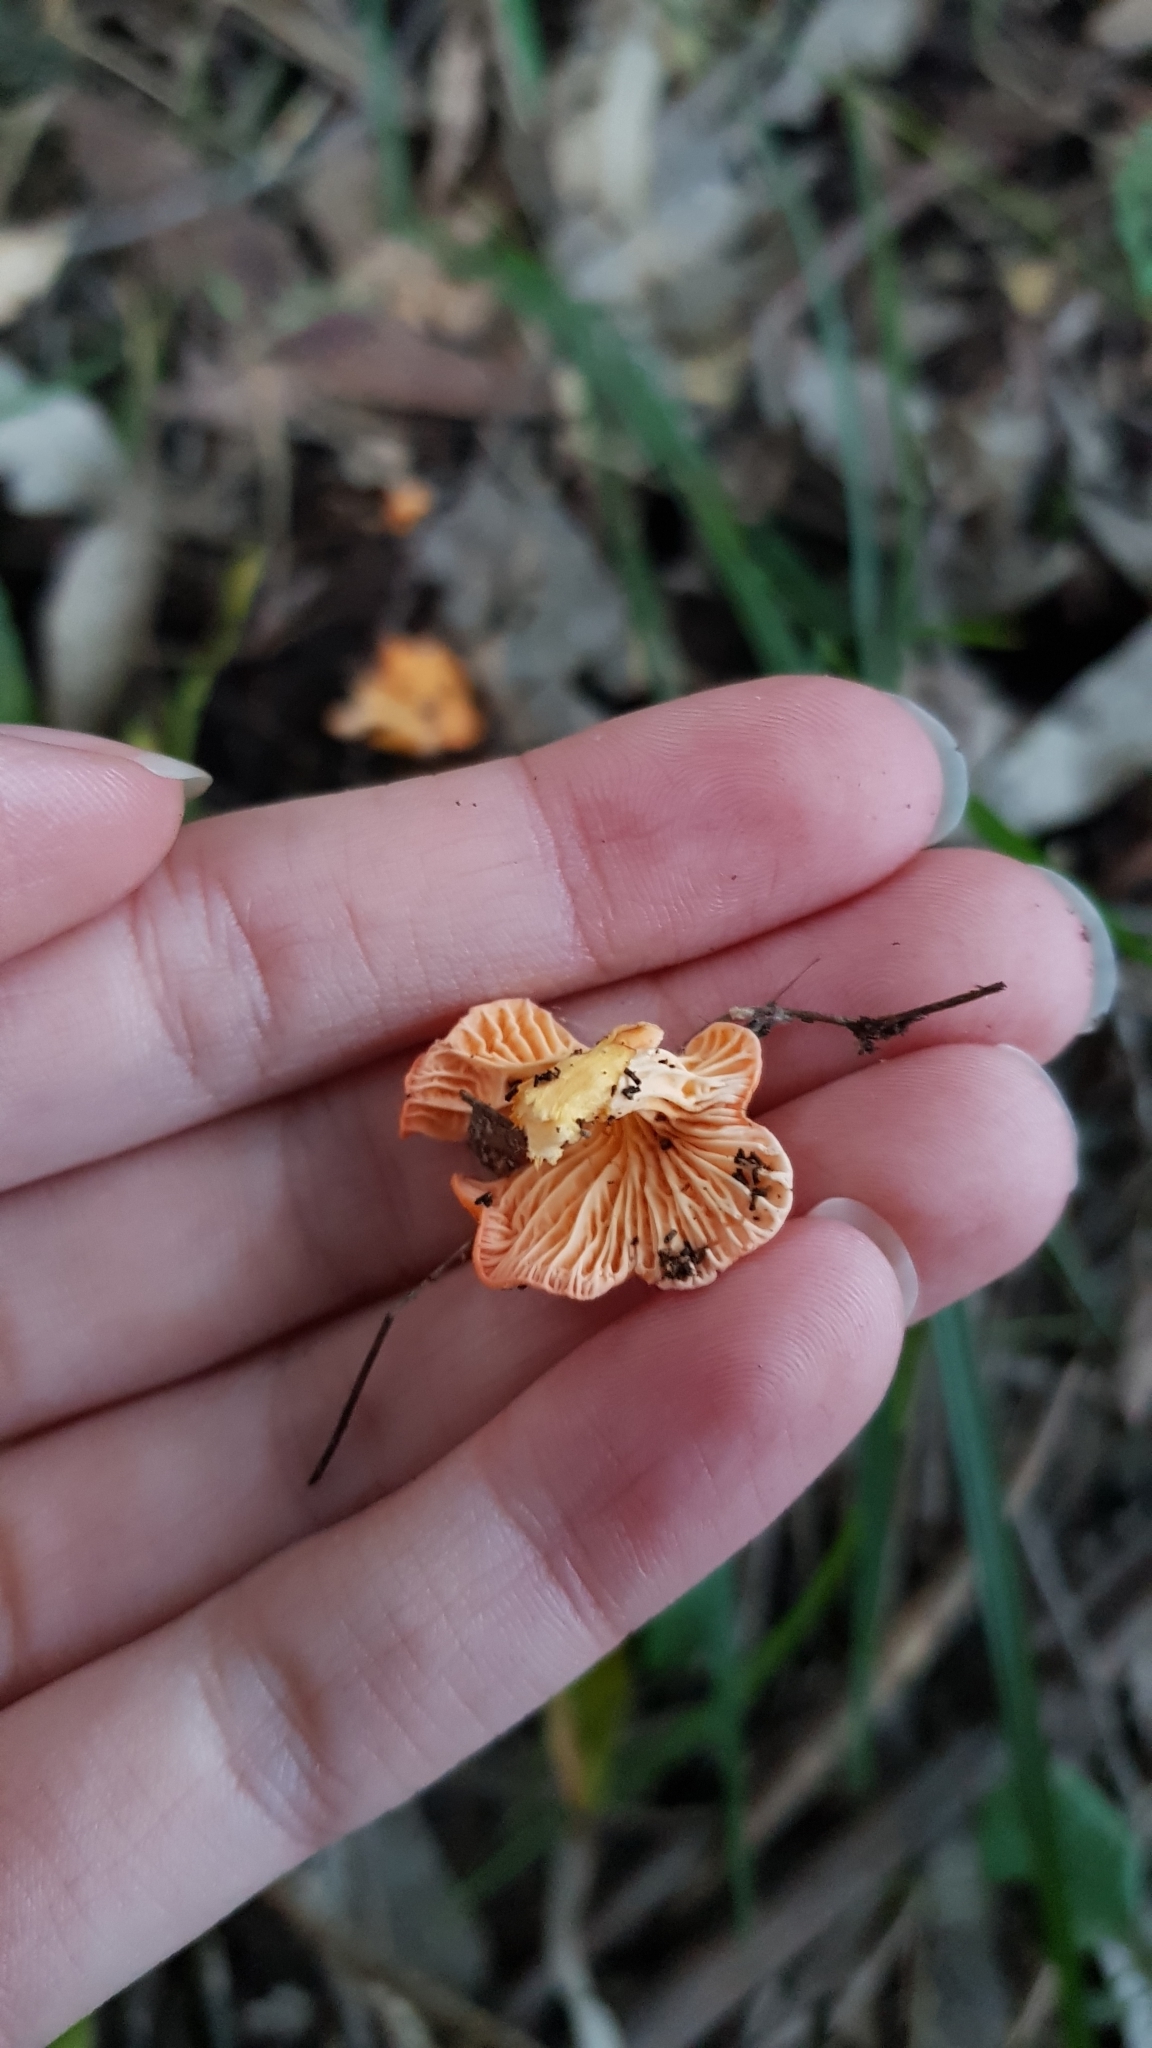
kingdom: Fungi
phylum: Basidiomycota
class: Agaricomycetes
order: Cantharellales
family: Hydnaceae
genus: Cantharellus
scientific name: Cantharellus
